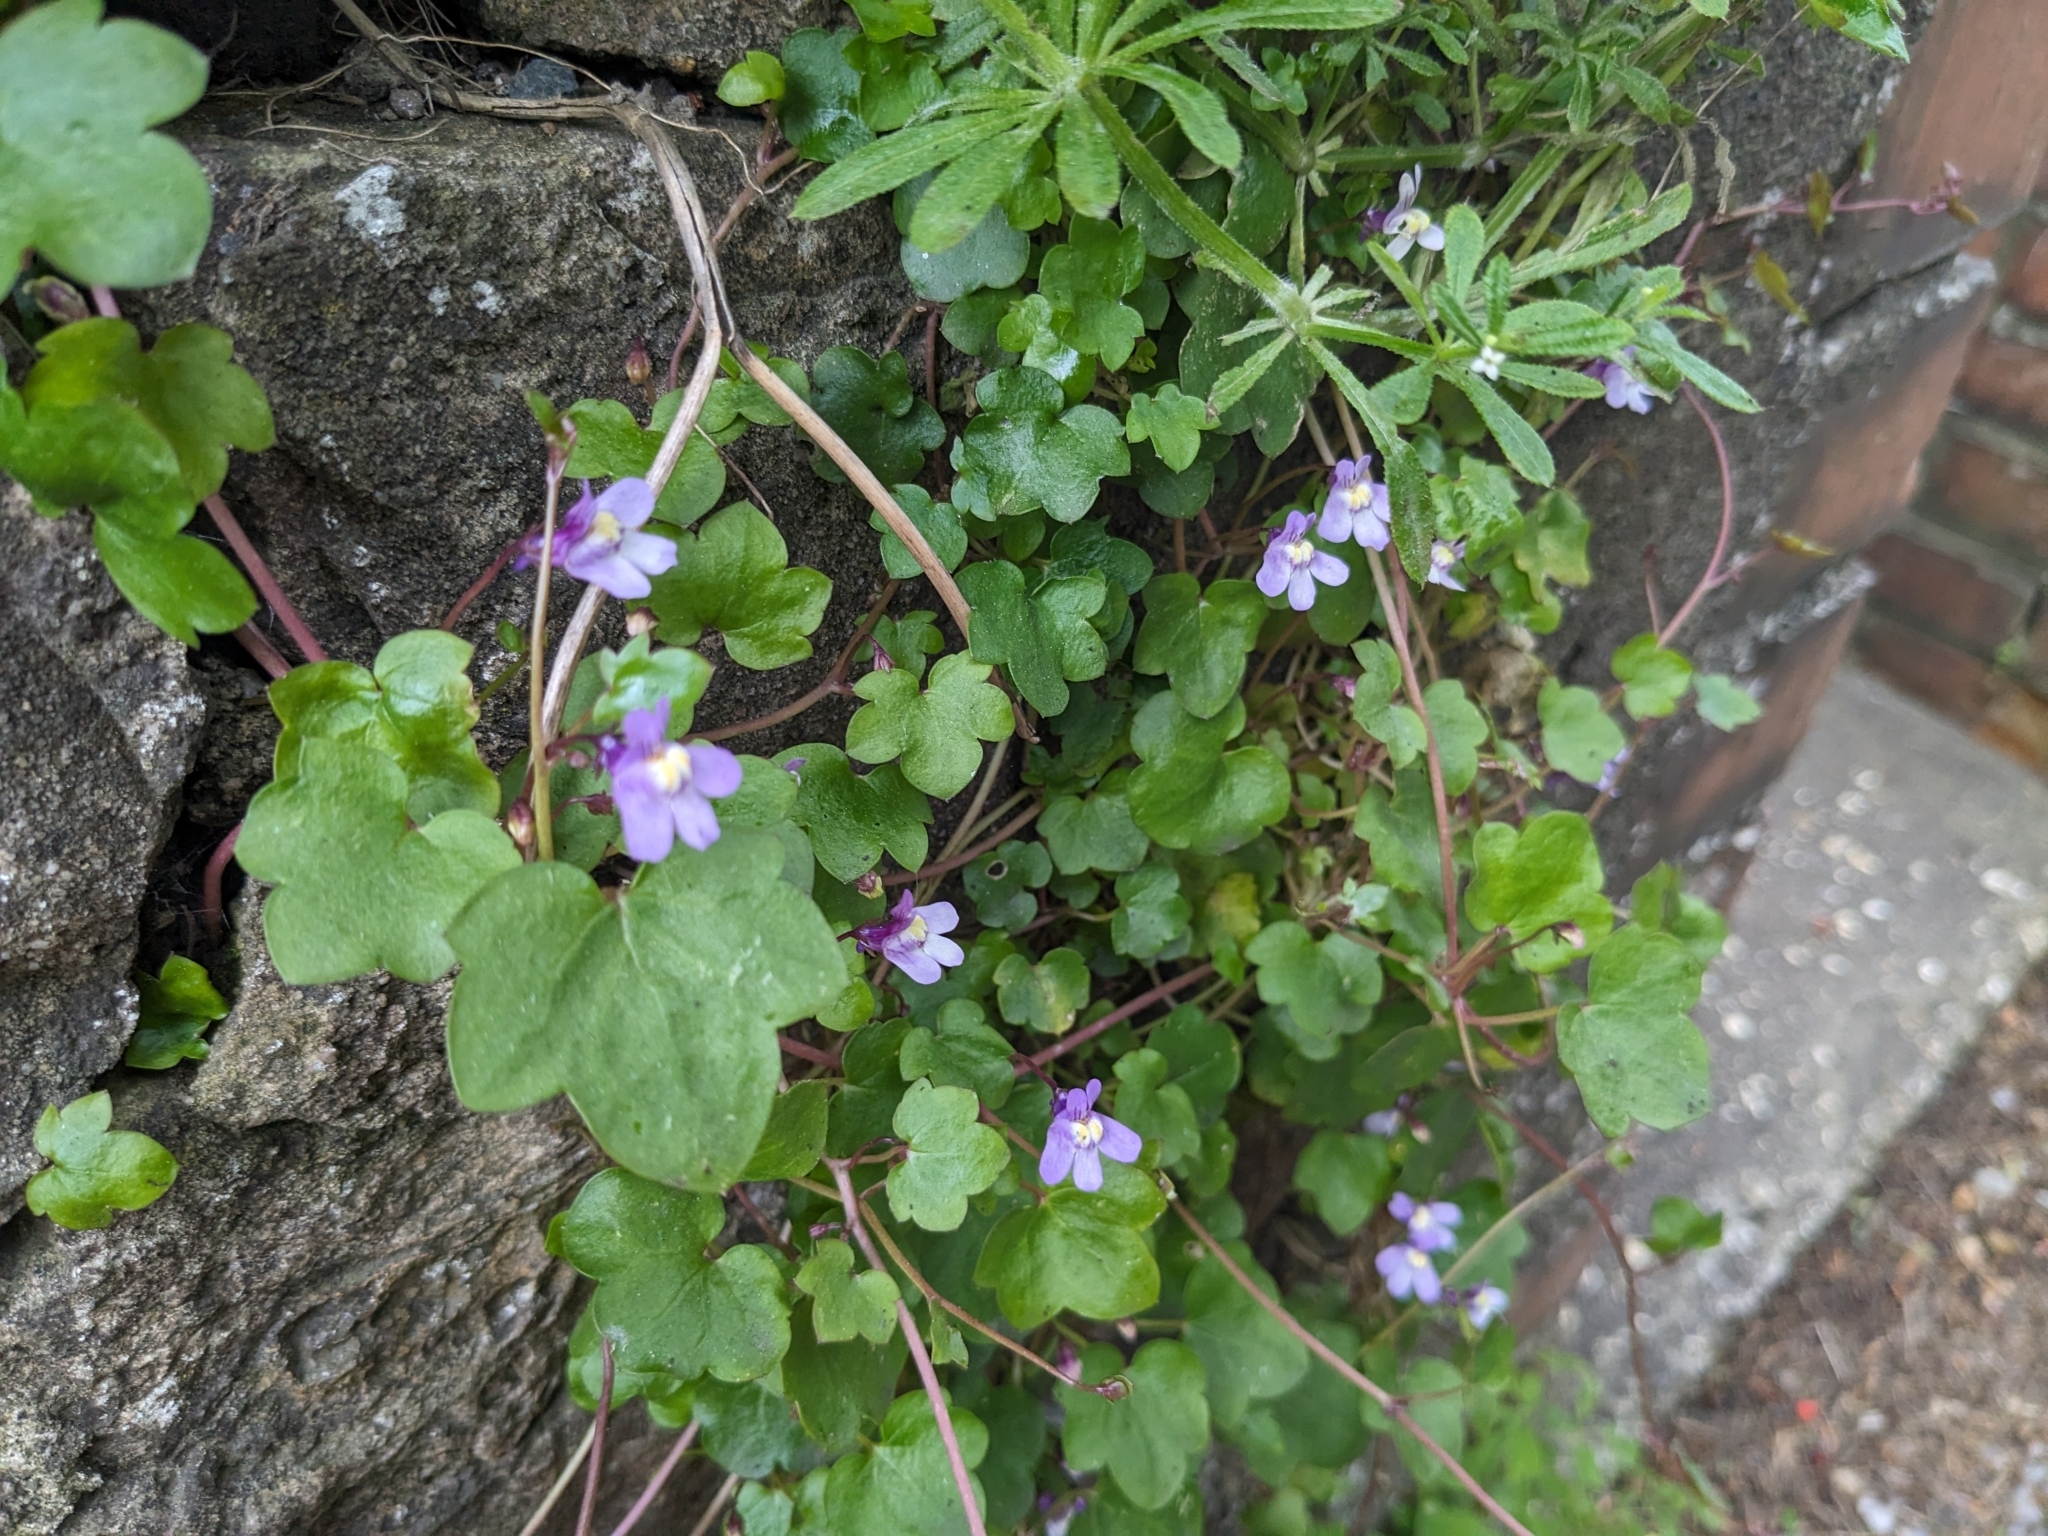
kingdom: Plantae
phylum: Tracheophyta
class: Magnoliopsida
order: Lamiales
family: Plantaginaceae
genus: Cymbalaria
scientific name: Cymbalaria muralis
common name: Ivy-leaved toadflax
